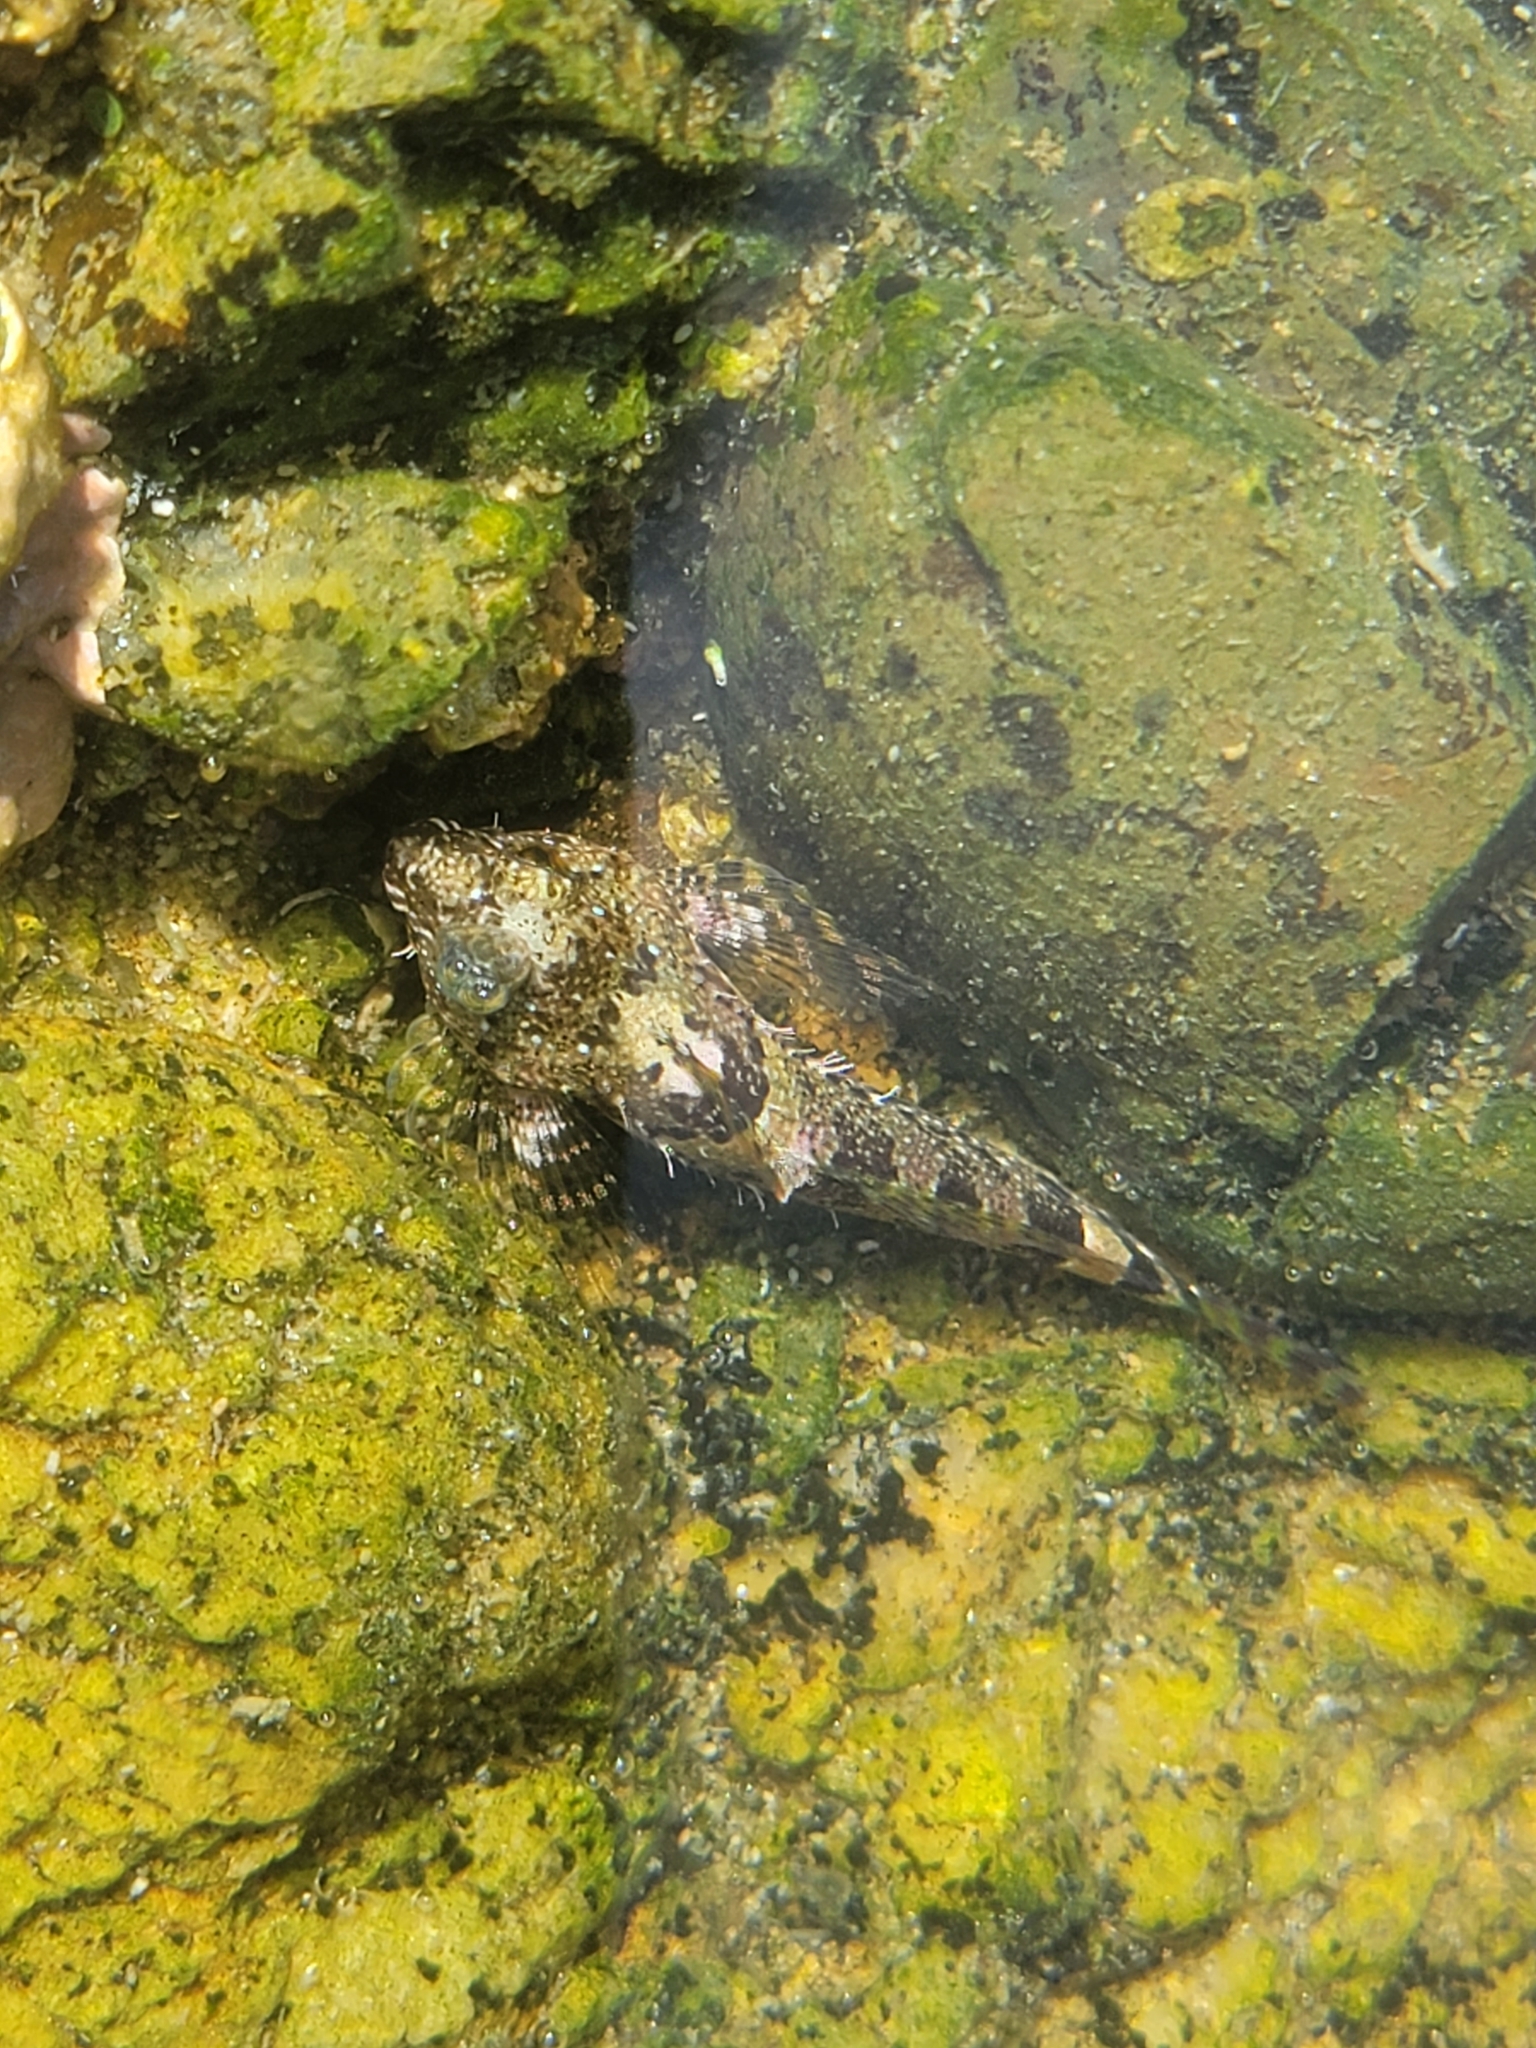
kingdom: Animalia
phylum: Chordata
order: Scorpaeniformes
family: Cottidae
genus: Clinocottus
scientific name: Clinocottus analis
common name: Woolly sculpin
